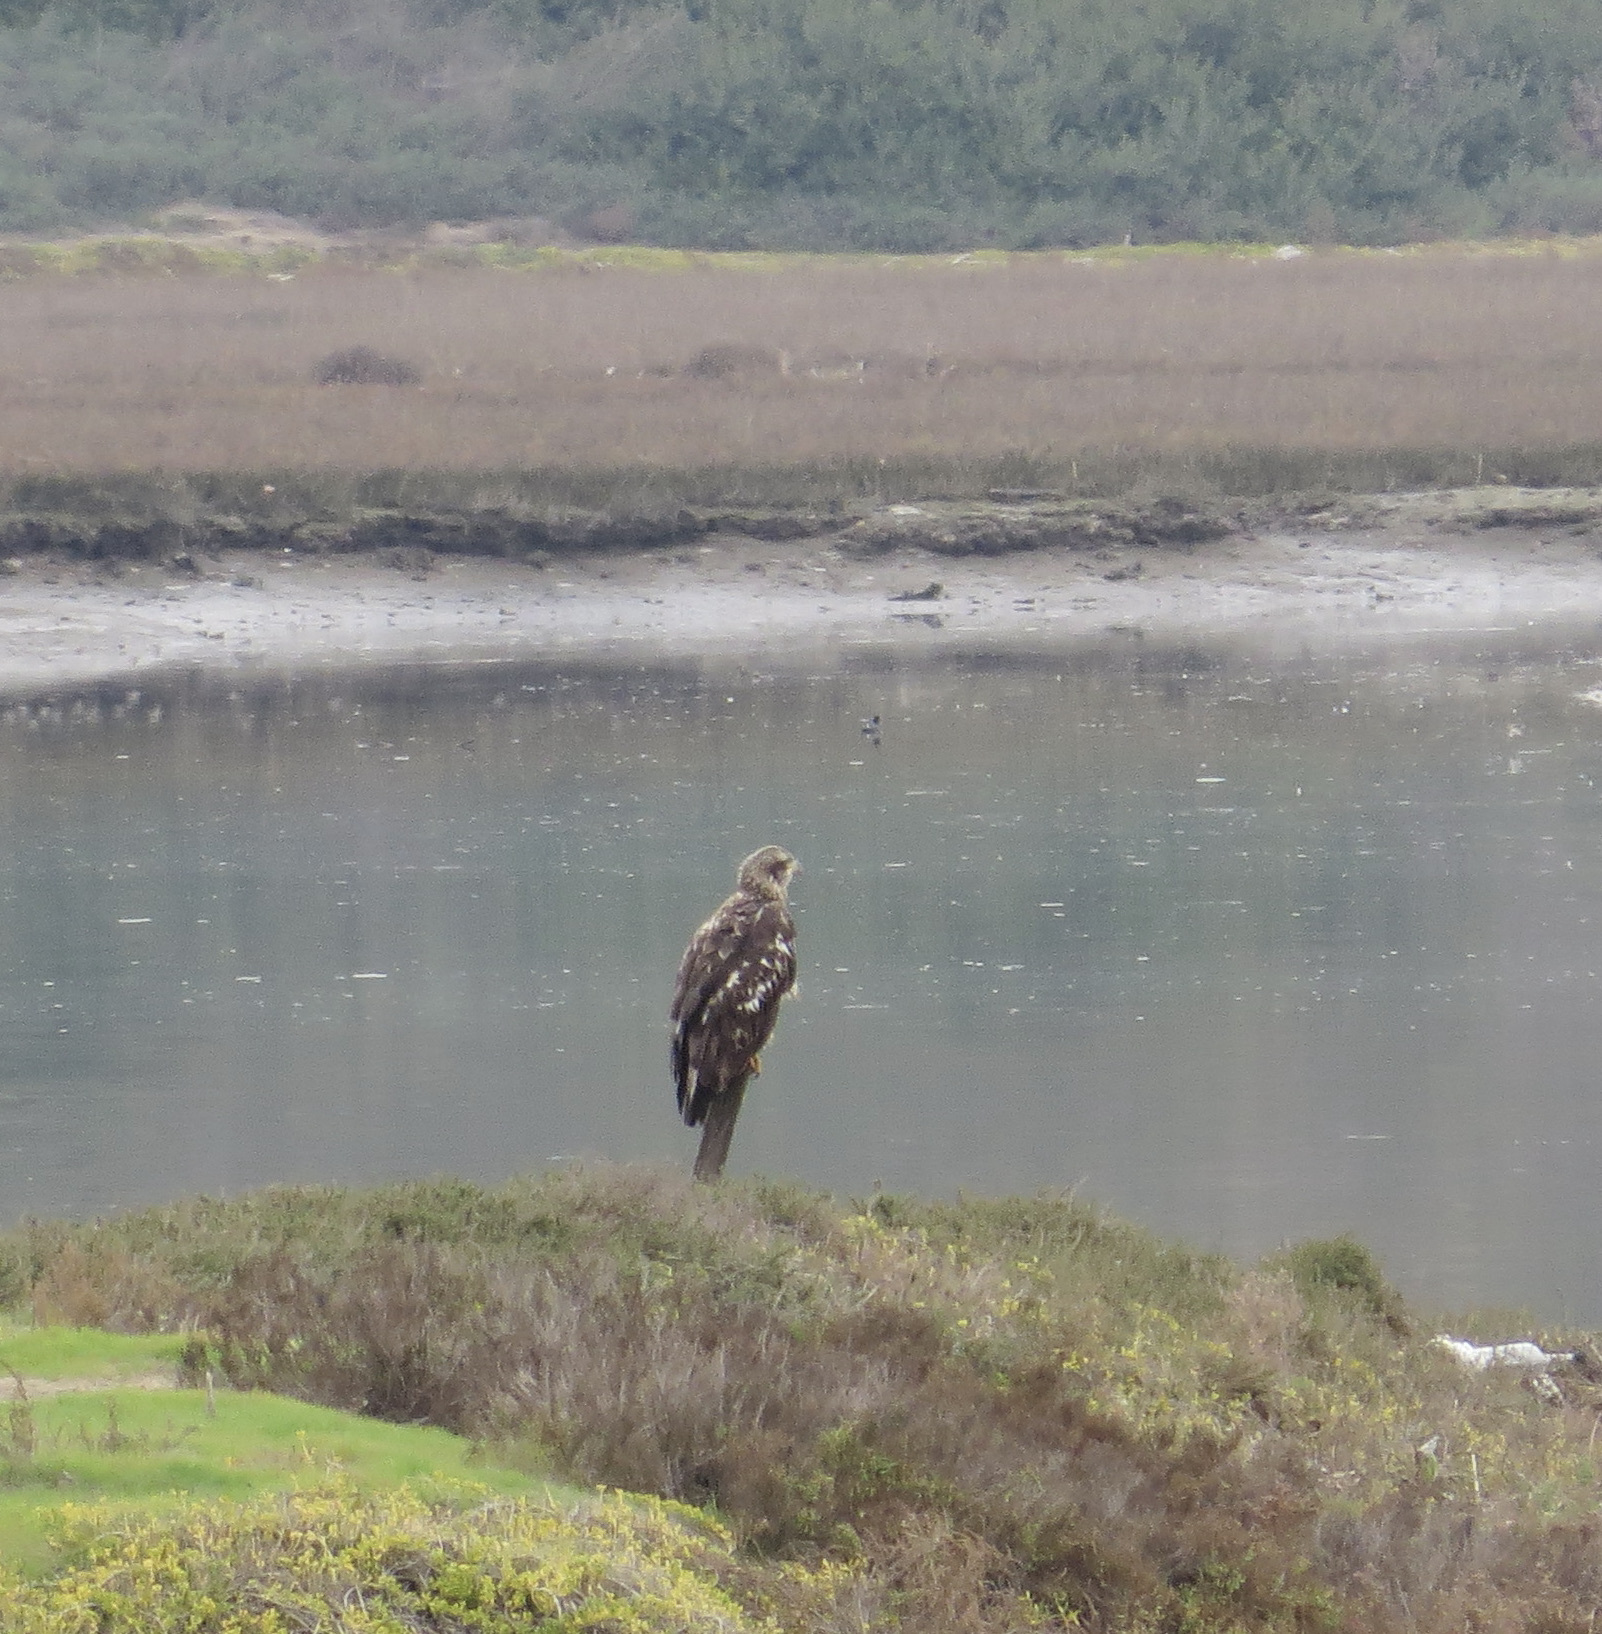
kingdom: Animalia
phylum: Chordata
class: Aves
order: Accipitriformes
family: Accipitridae
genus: Haliaeetus
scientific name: Haliaeetus leucocephalus
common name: Bald eagle
